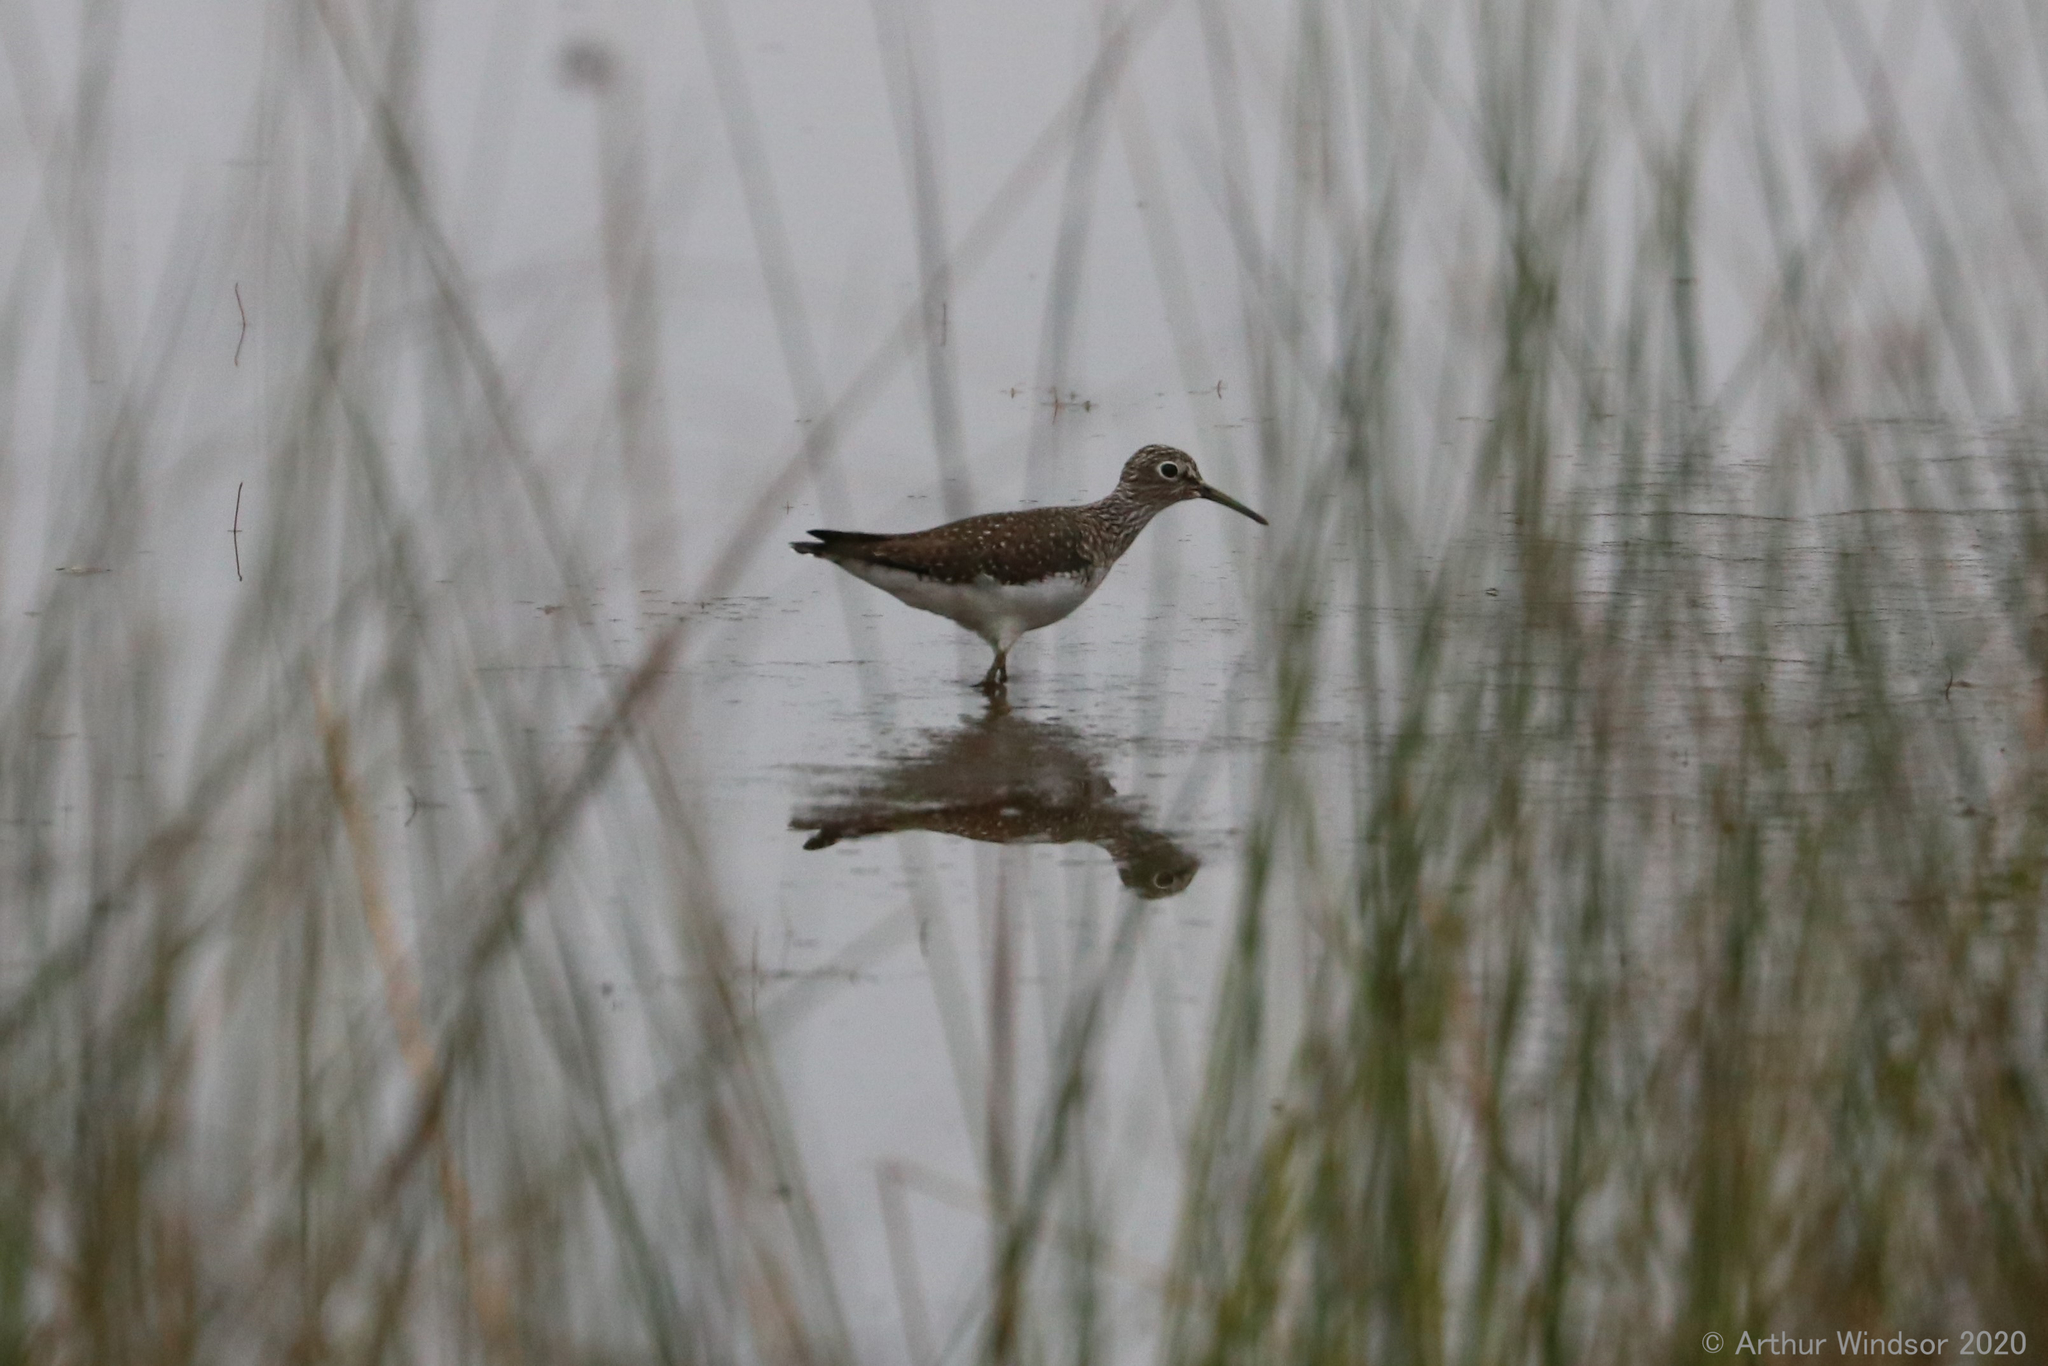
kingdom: Animalia
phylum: Chordata
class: Aves
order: Charadriiformes
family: Scolopacidae
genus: Tringa
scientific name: Tringa solitaria
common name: Solitary sandpiper
